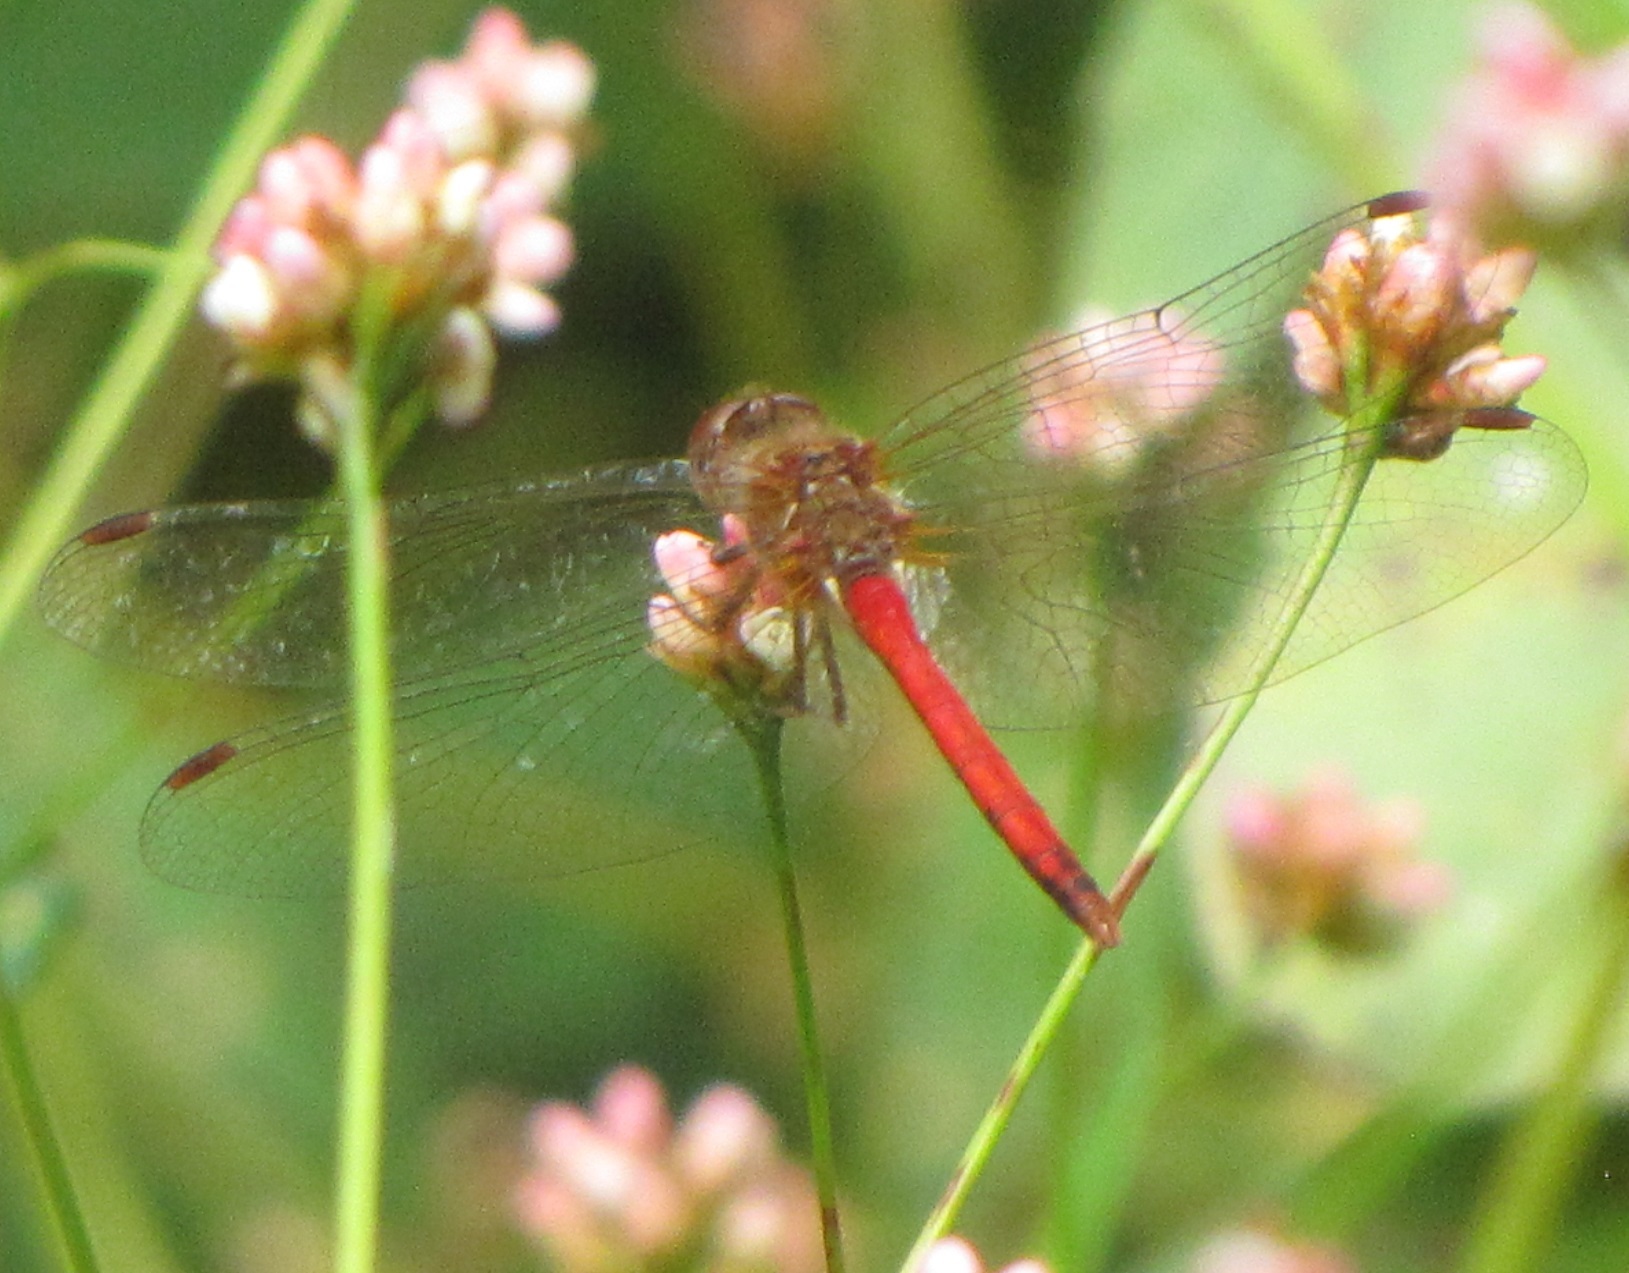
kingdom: Animalia
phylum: Arthropoda
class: Insecta
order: Odonata
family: Libellulidae
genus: Sympetrum
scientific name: Sympetrum vicinum
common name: Autumn meadowhawk
